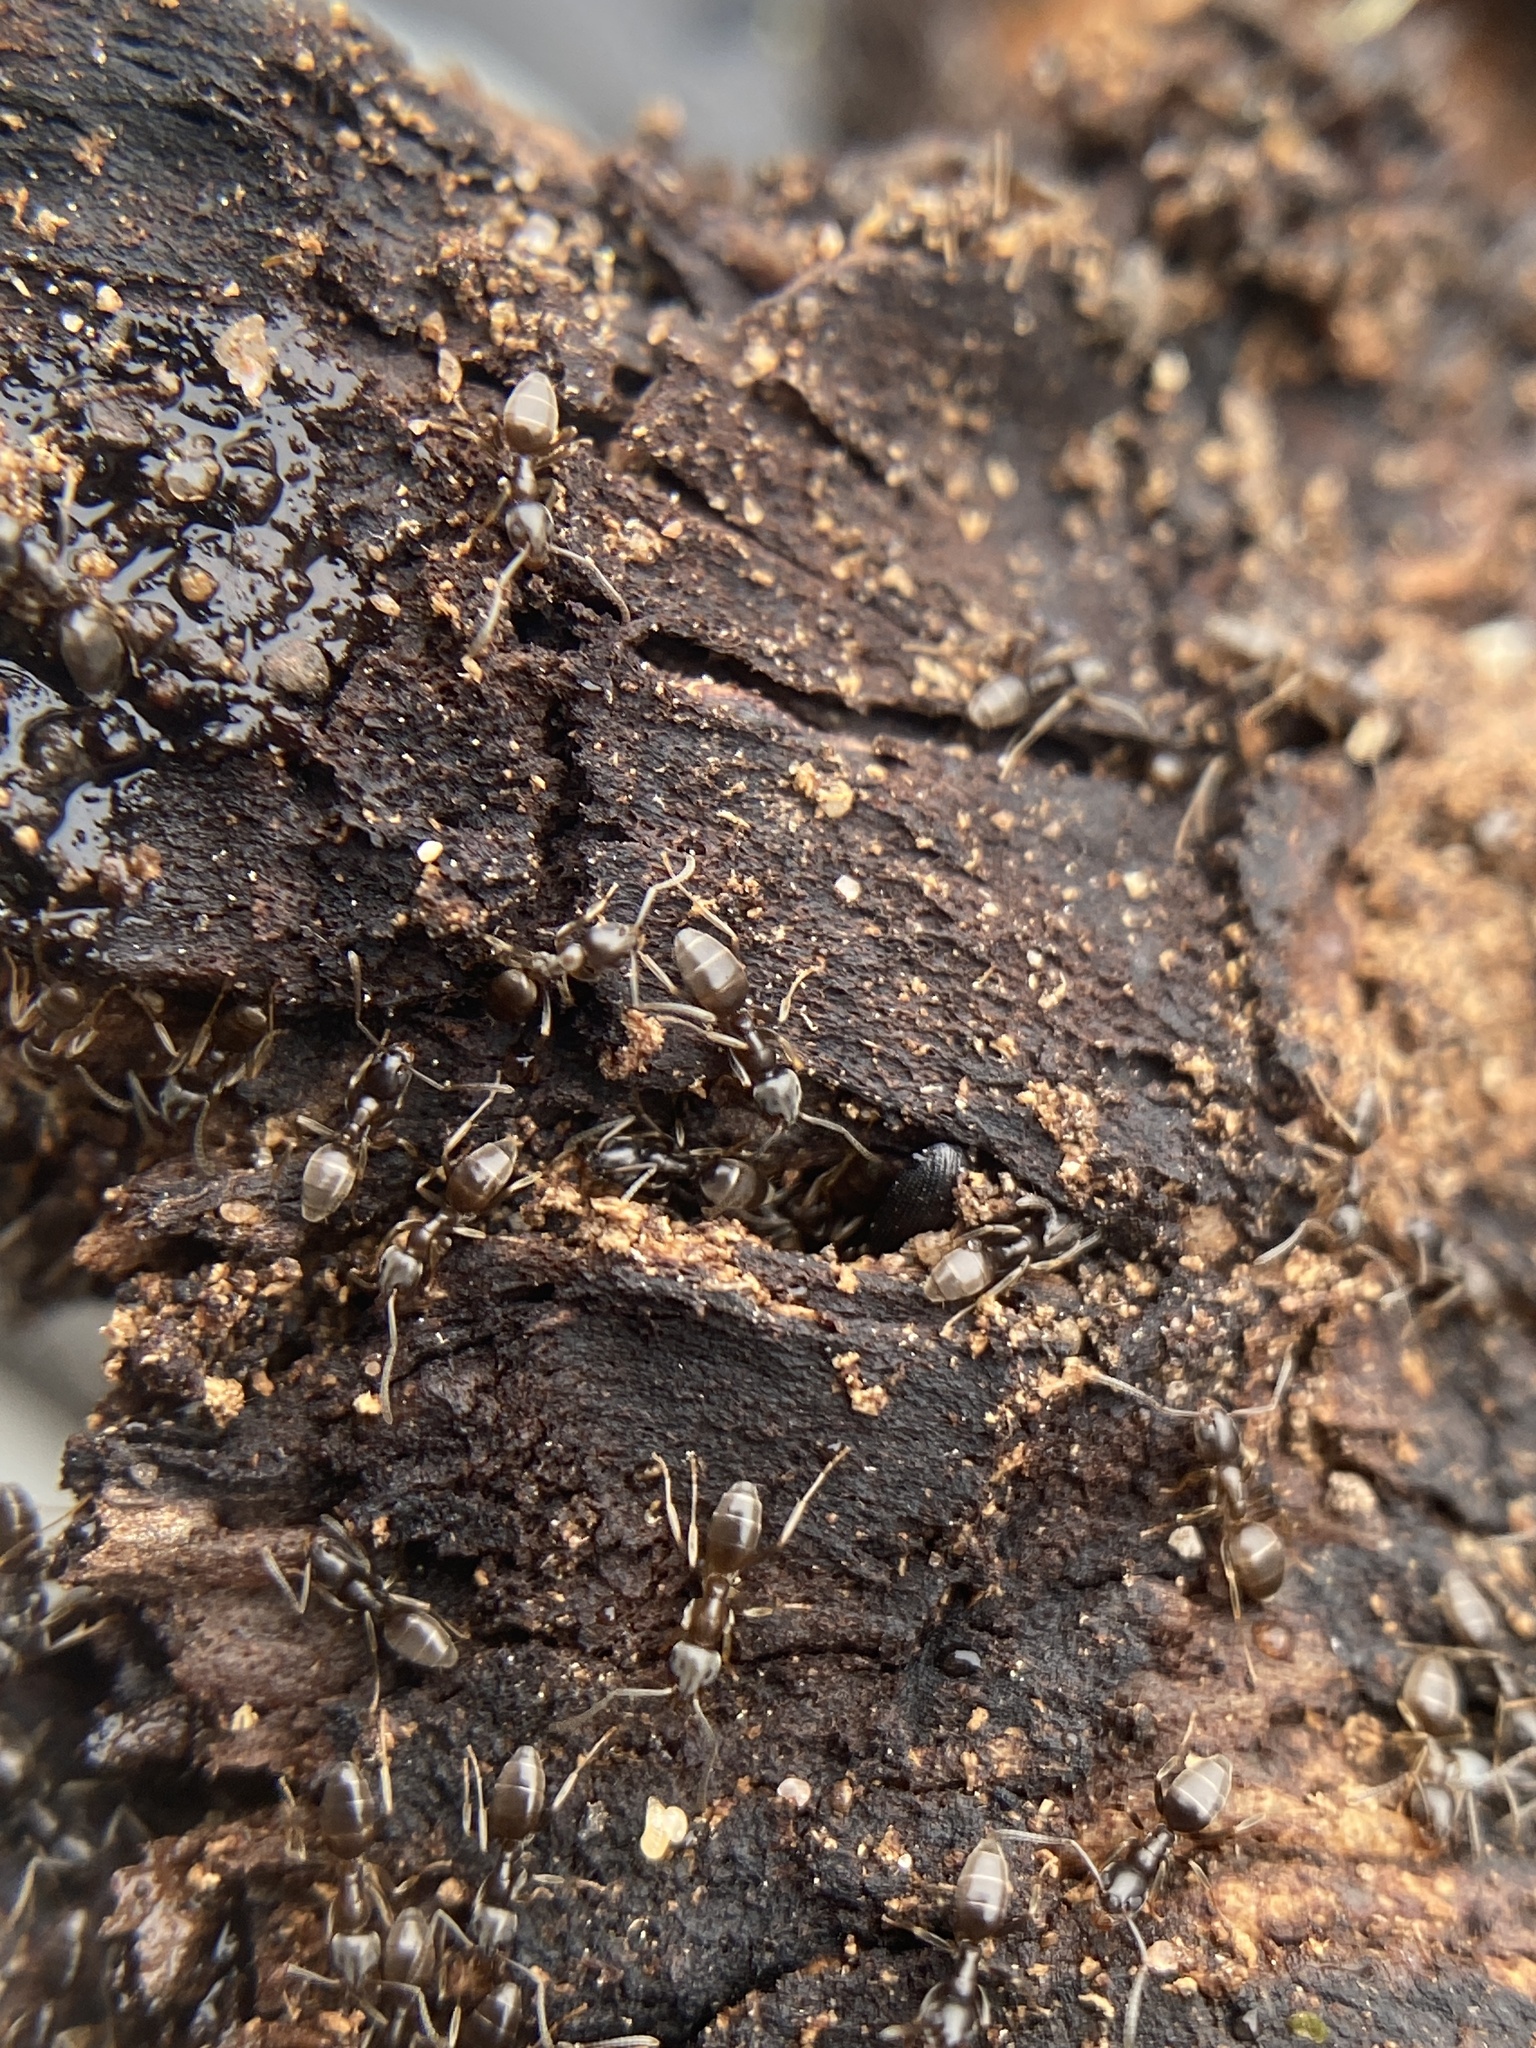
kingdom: Animalia
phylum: Arthropoda
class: Insecta
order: Hymenoptera
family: Formicidae
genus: Tapinoma
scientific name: Tapinoma sessile
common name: Odorous house ant
